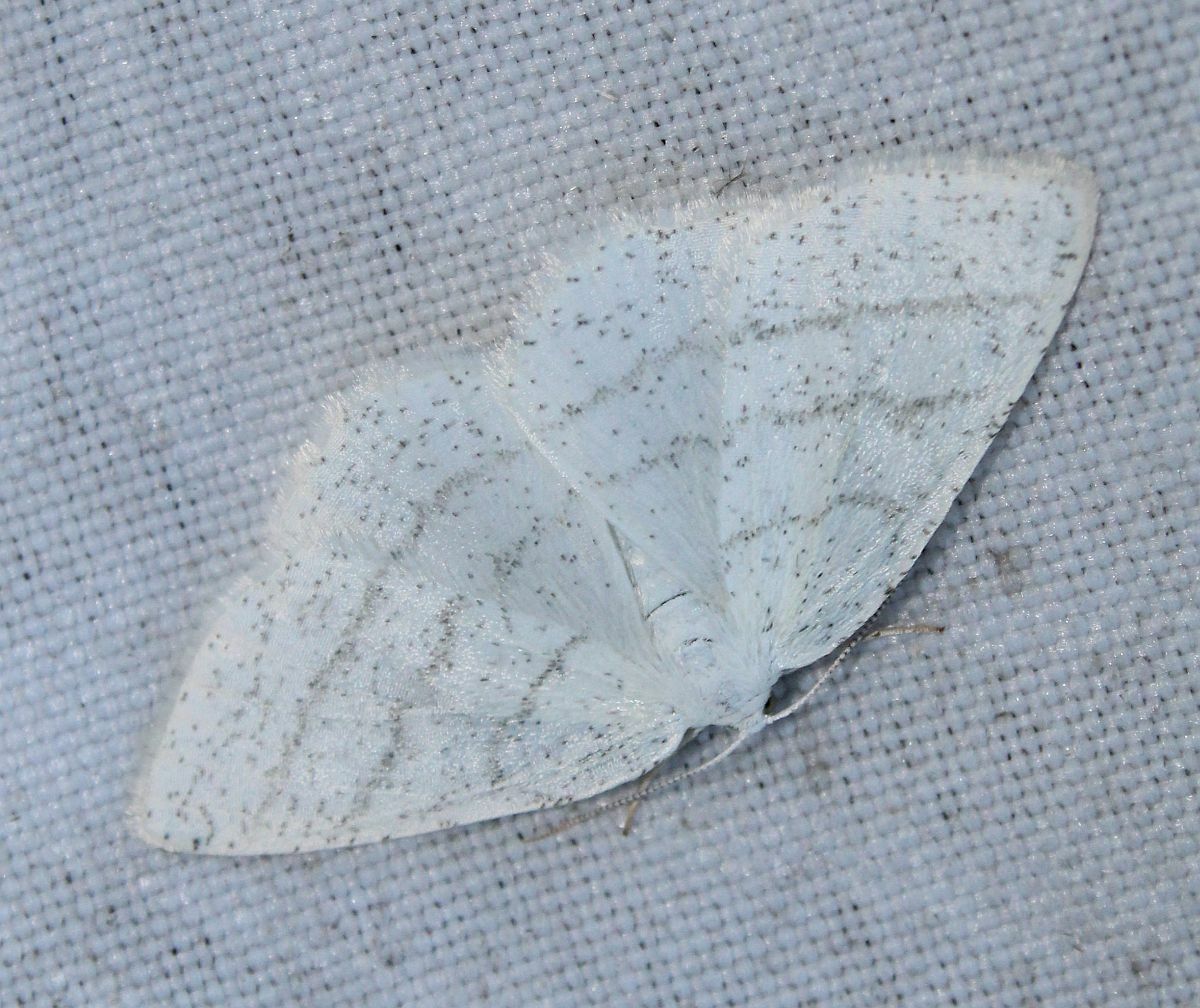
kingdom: Animalia
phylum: Arthropoda
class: Insecta
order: Lepidoptera
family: Geometridae
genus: Cabera
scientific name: Cabera pusaria
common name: Common white wave
